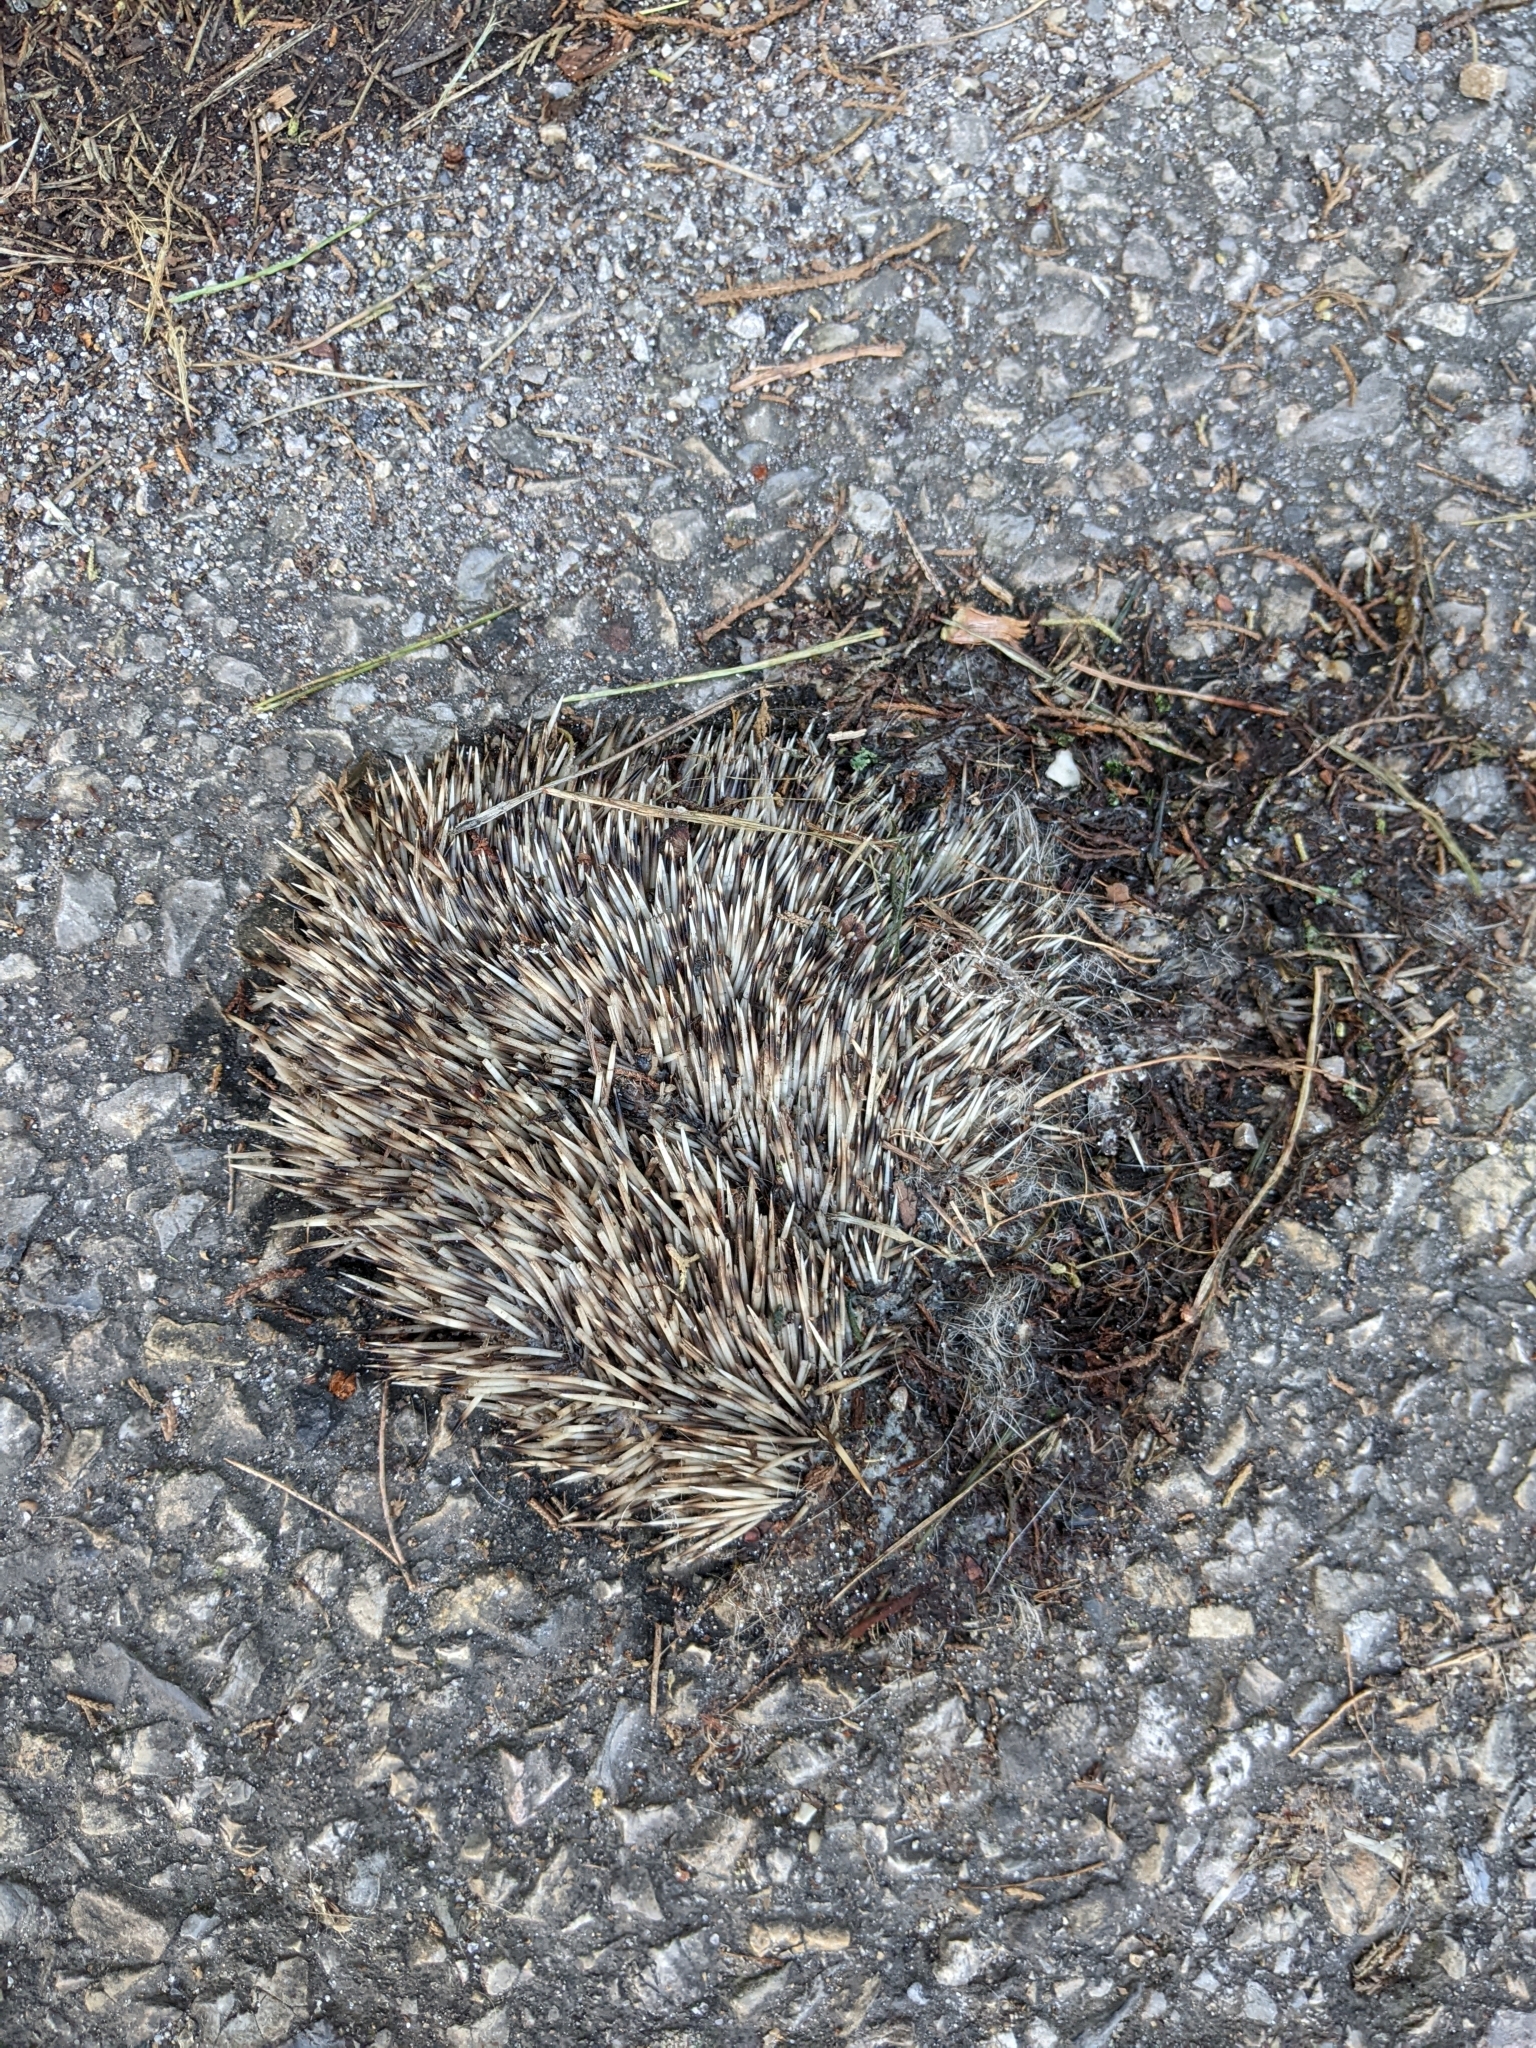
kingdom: Animalia
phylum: Chordata
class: Mammalia
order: Erinaceomorpha
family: Erinaceidae
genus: Erinaceus
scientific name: Erinaceus europaeus
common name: West european hedgehog
